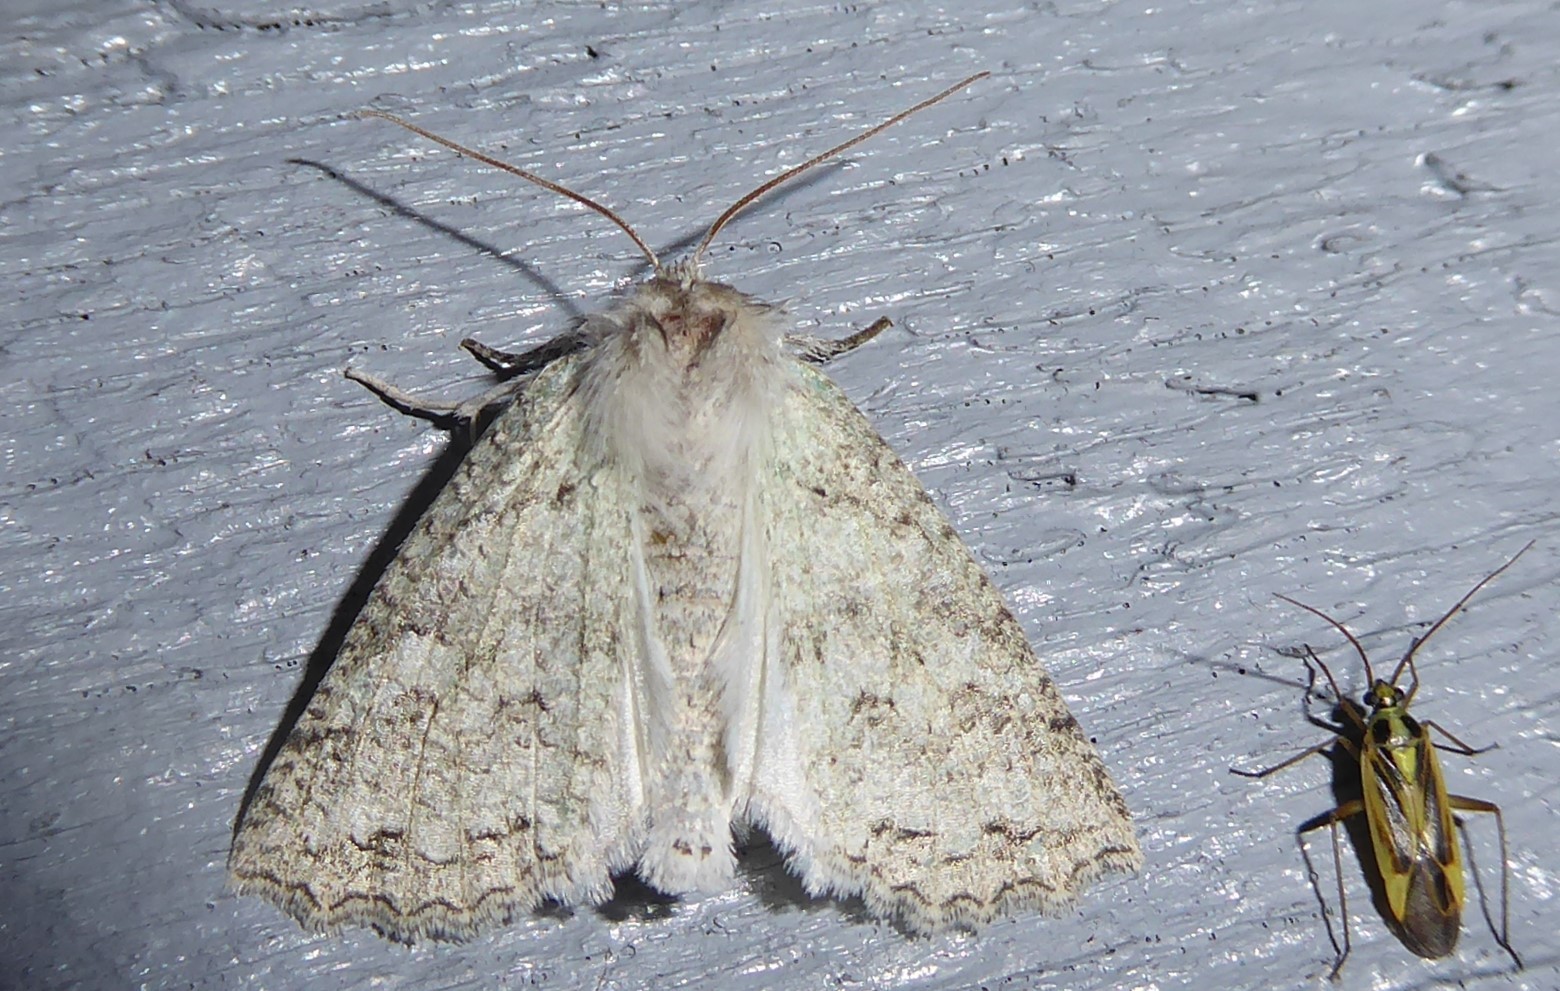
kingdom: Animalia
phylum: Arthropoda
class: Insecta
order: Lepidoptera
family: Geometridae
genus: Declana
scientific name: Declana niveata
